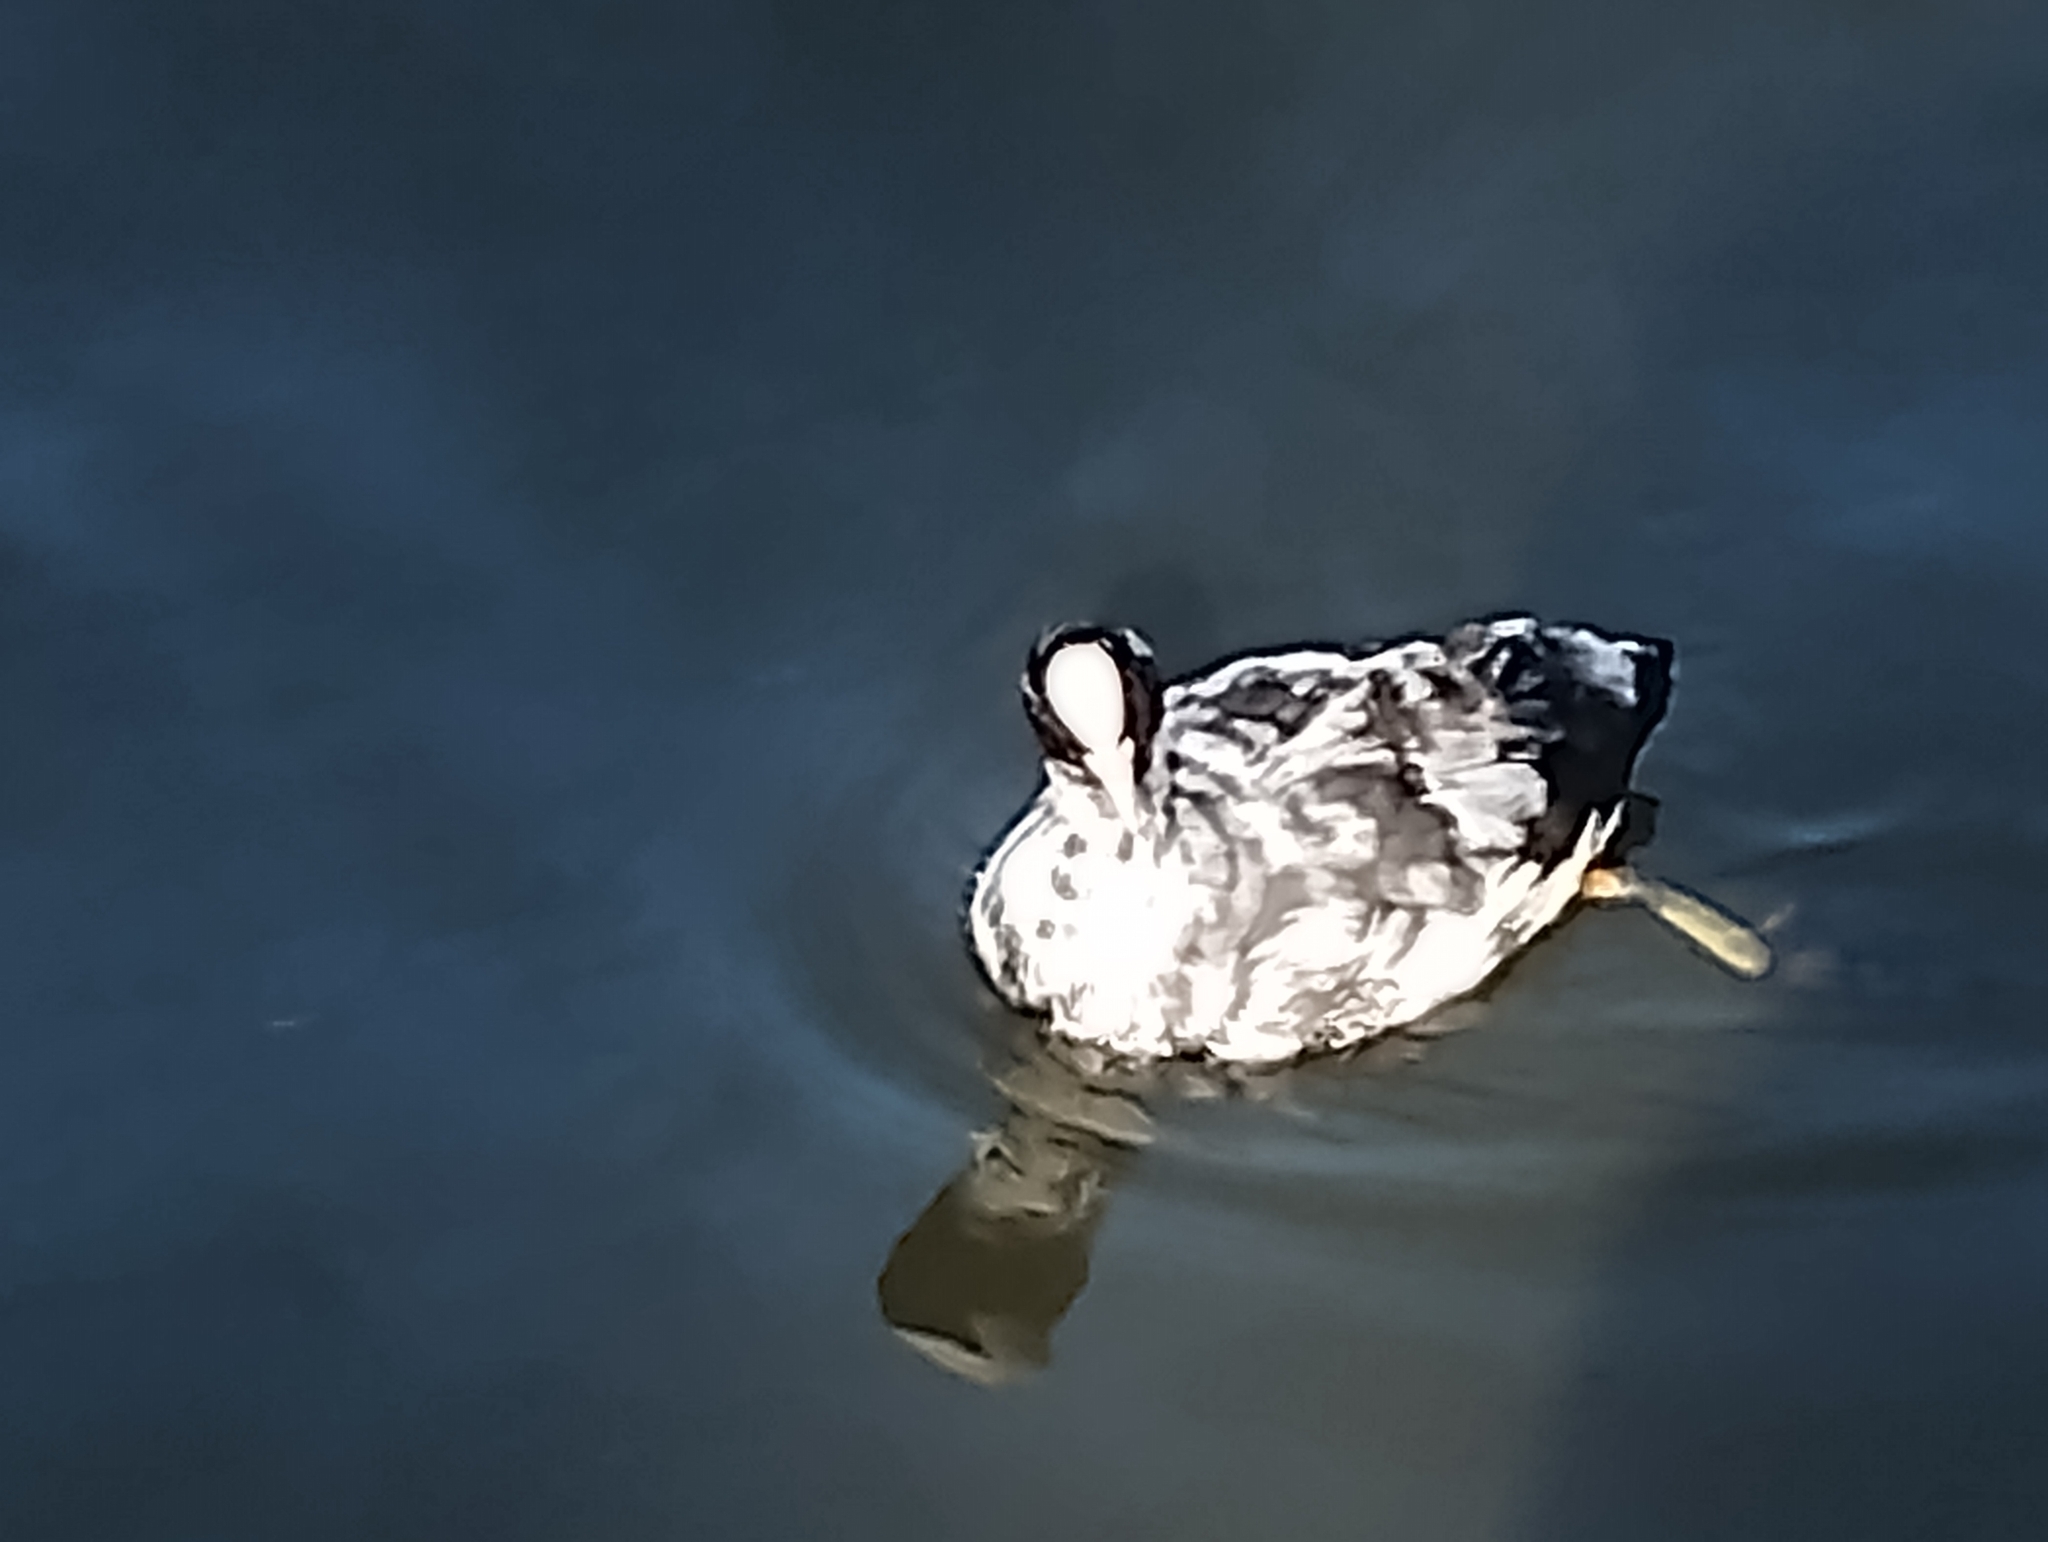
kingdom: Animalia
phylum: Chordata
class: Aves
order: Gruiformes
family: Rallidae
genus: Fulica
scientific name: Fulica atra
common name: Eurasian coot
